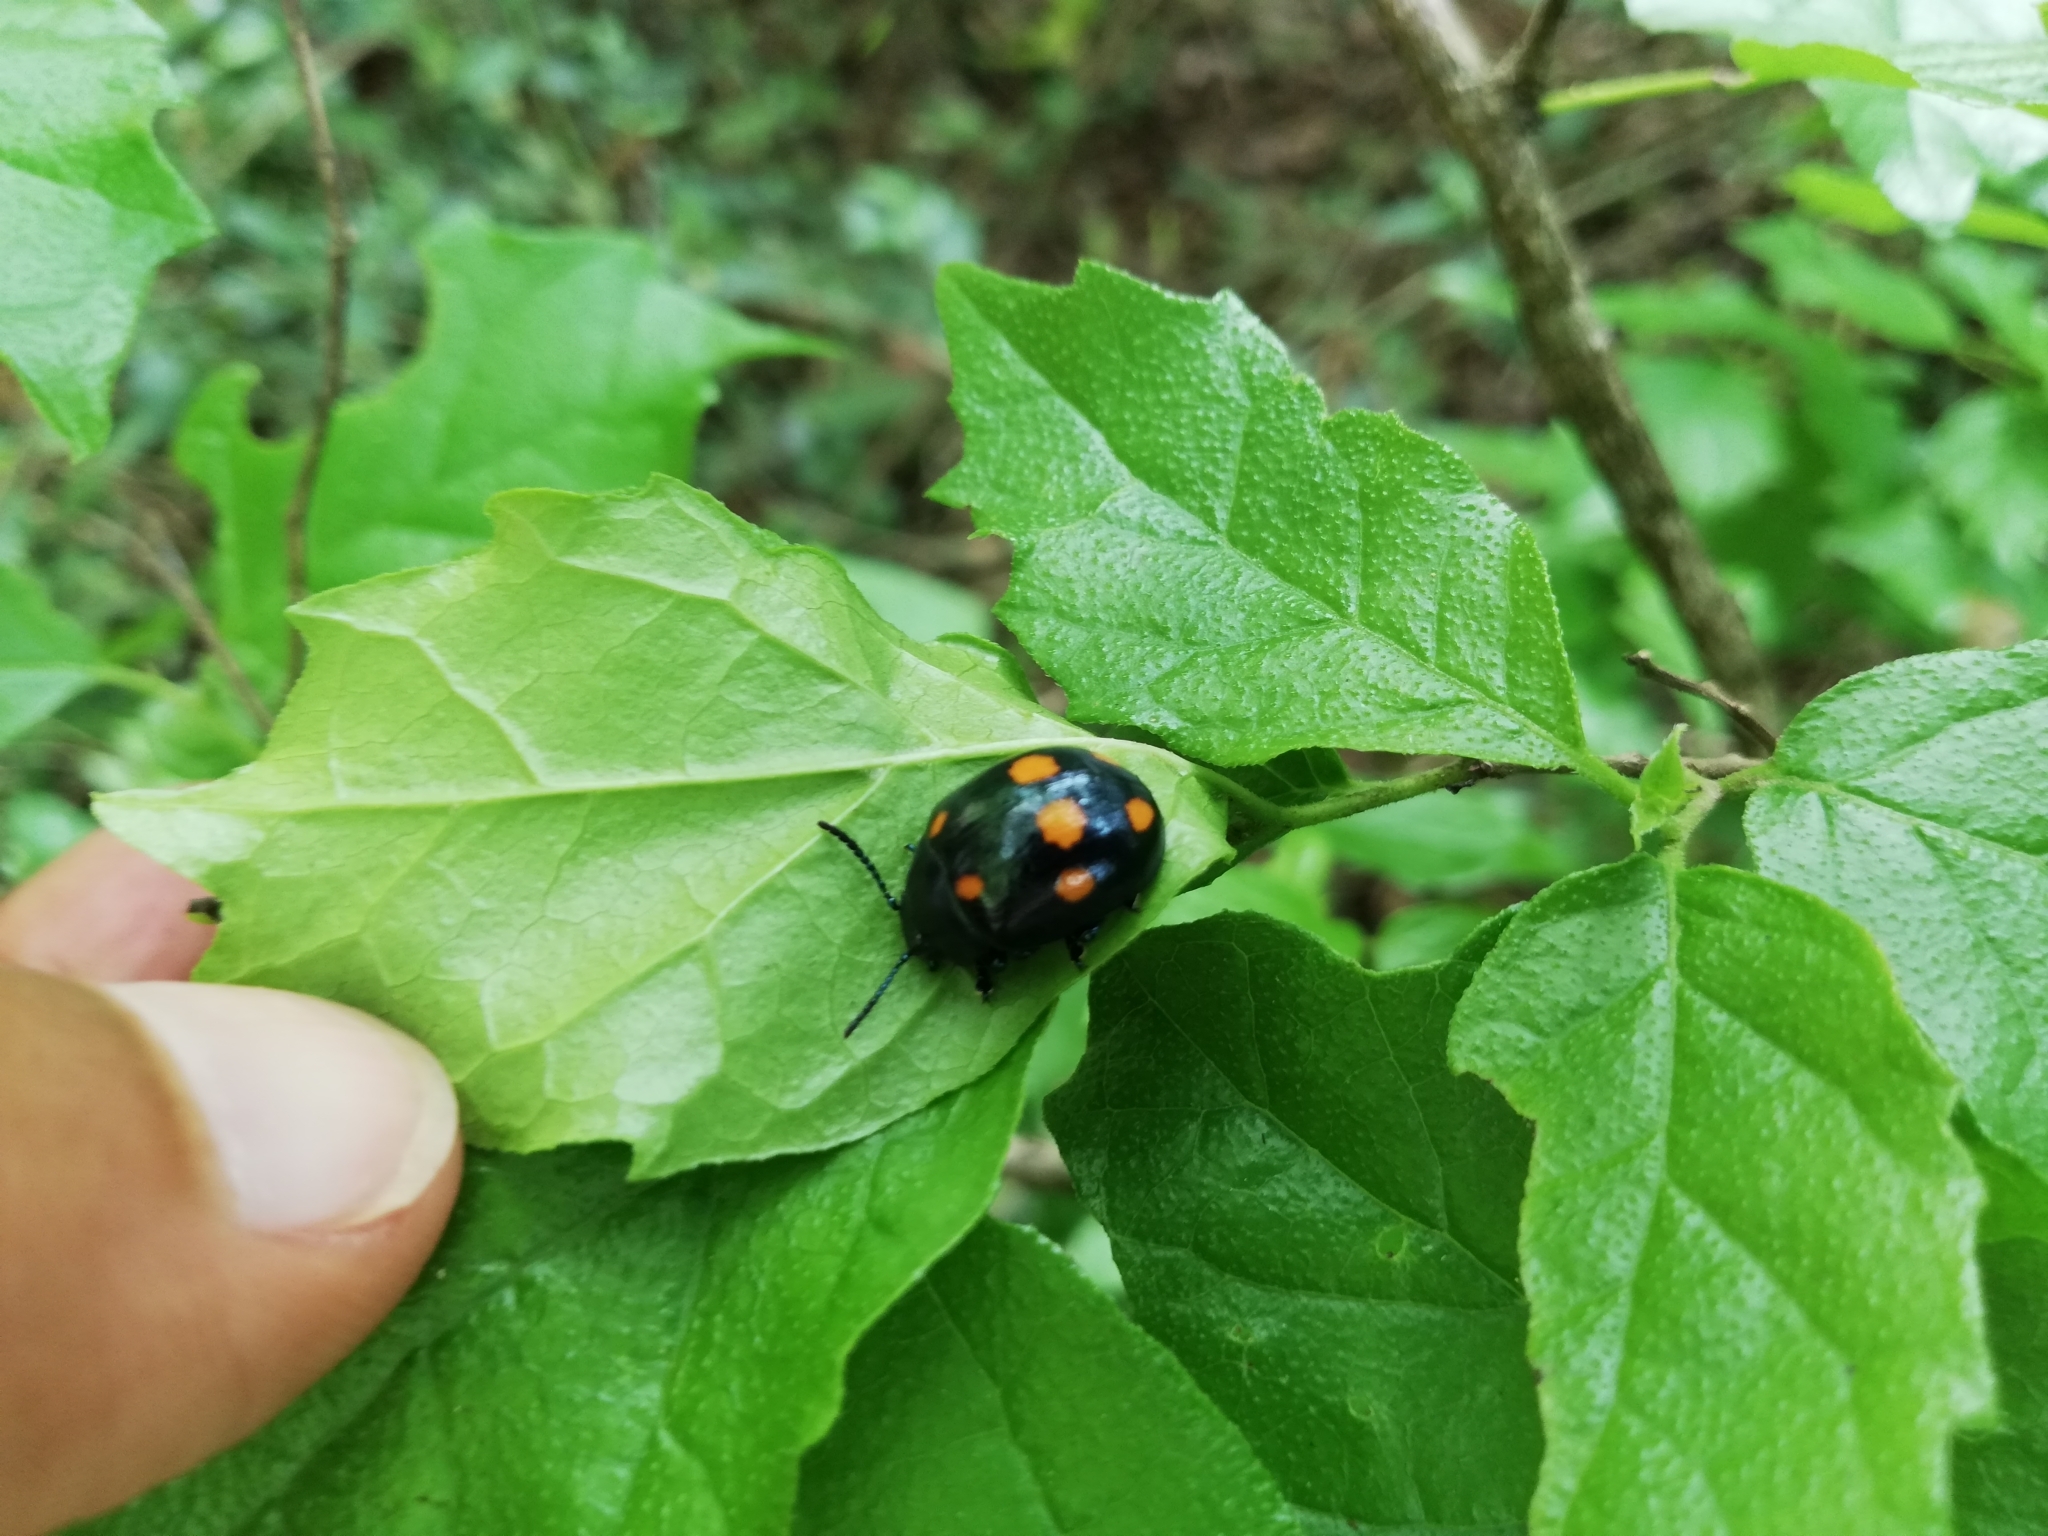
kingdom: Animalia
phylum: Arthropoda
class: Insecta
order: Coleoptera
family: Chrysomelidae
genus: Labidomera
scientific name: Labidomera
